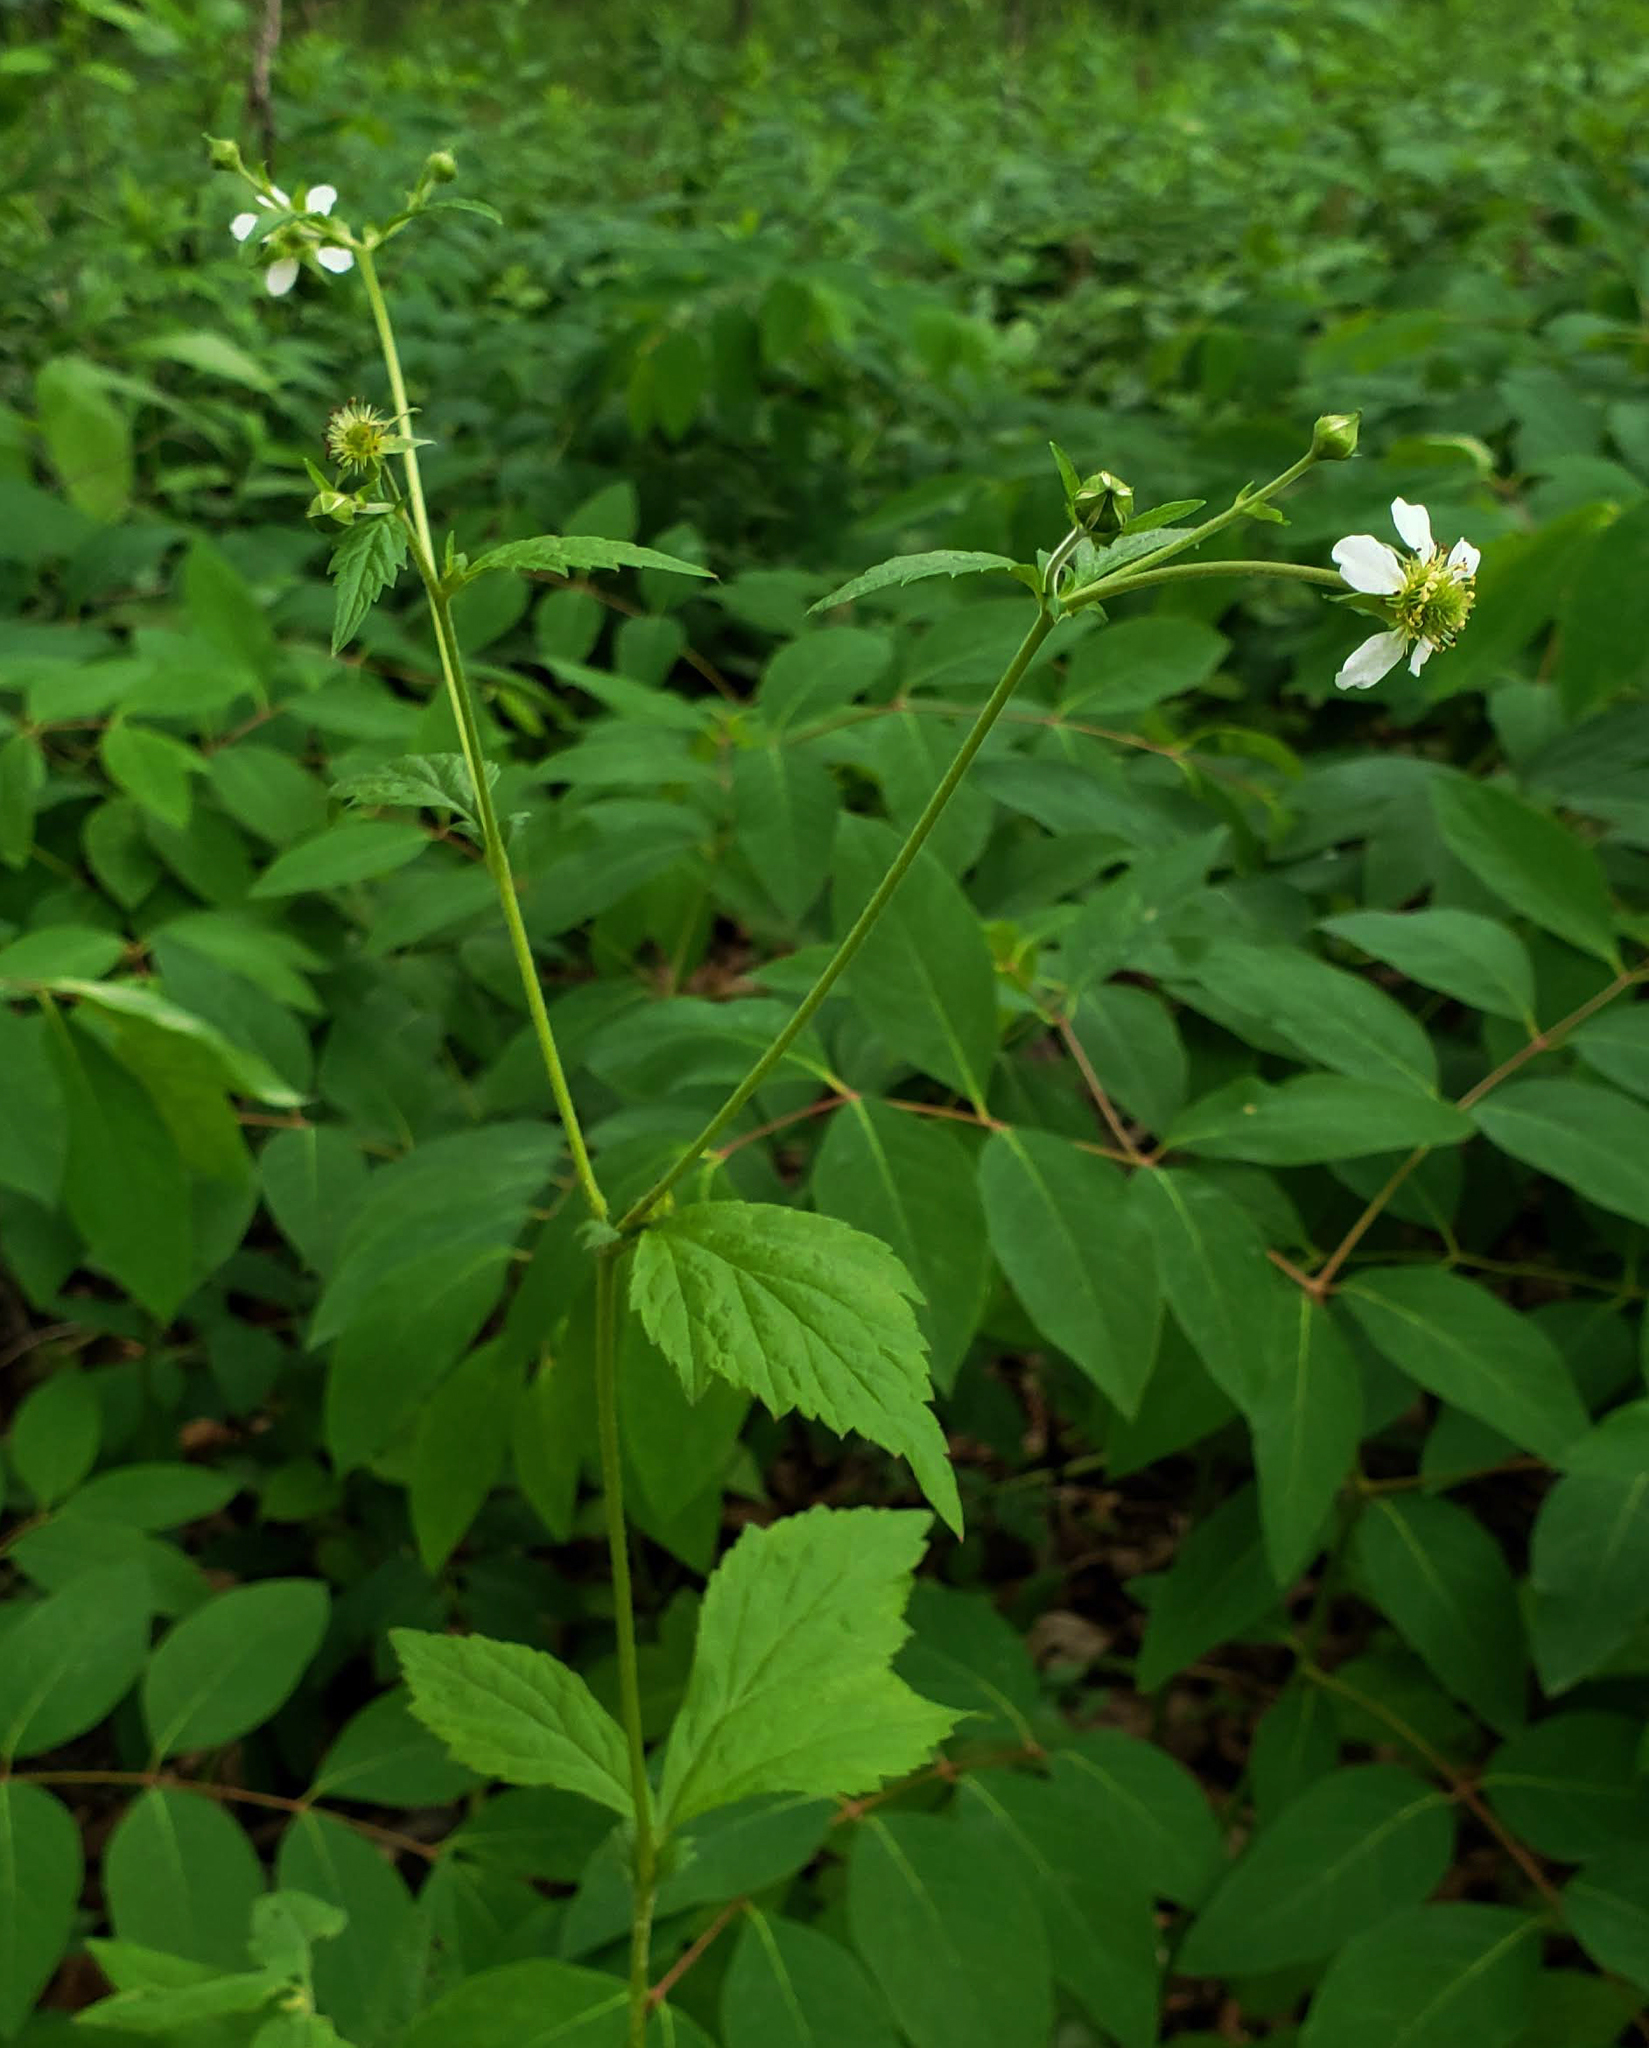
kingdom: Plantae
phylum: Tracheophyta
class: Magnoliopsida
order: Rosales
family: Rosaceae
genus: Geum
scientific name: Geum canadense
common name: White avens
